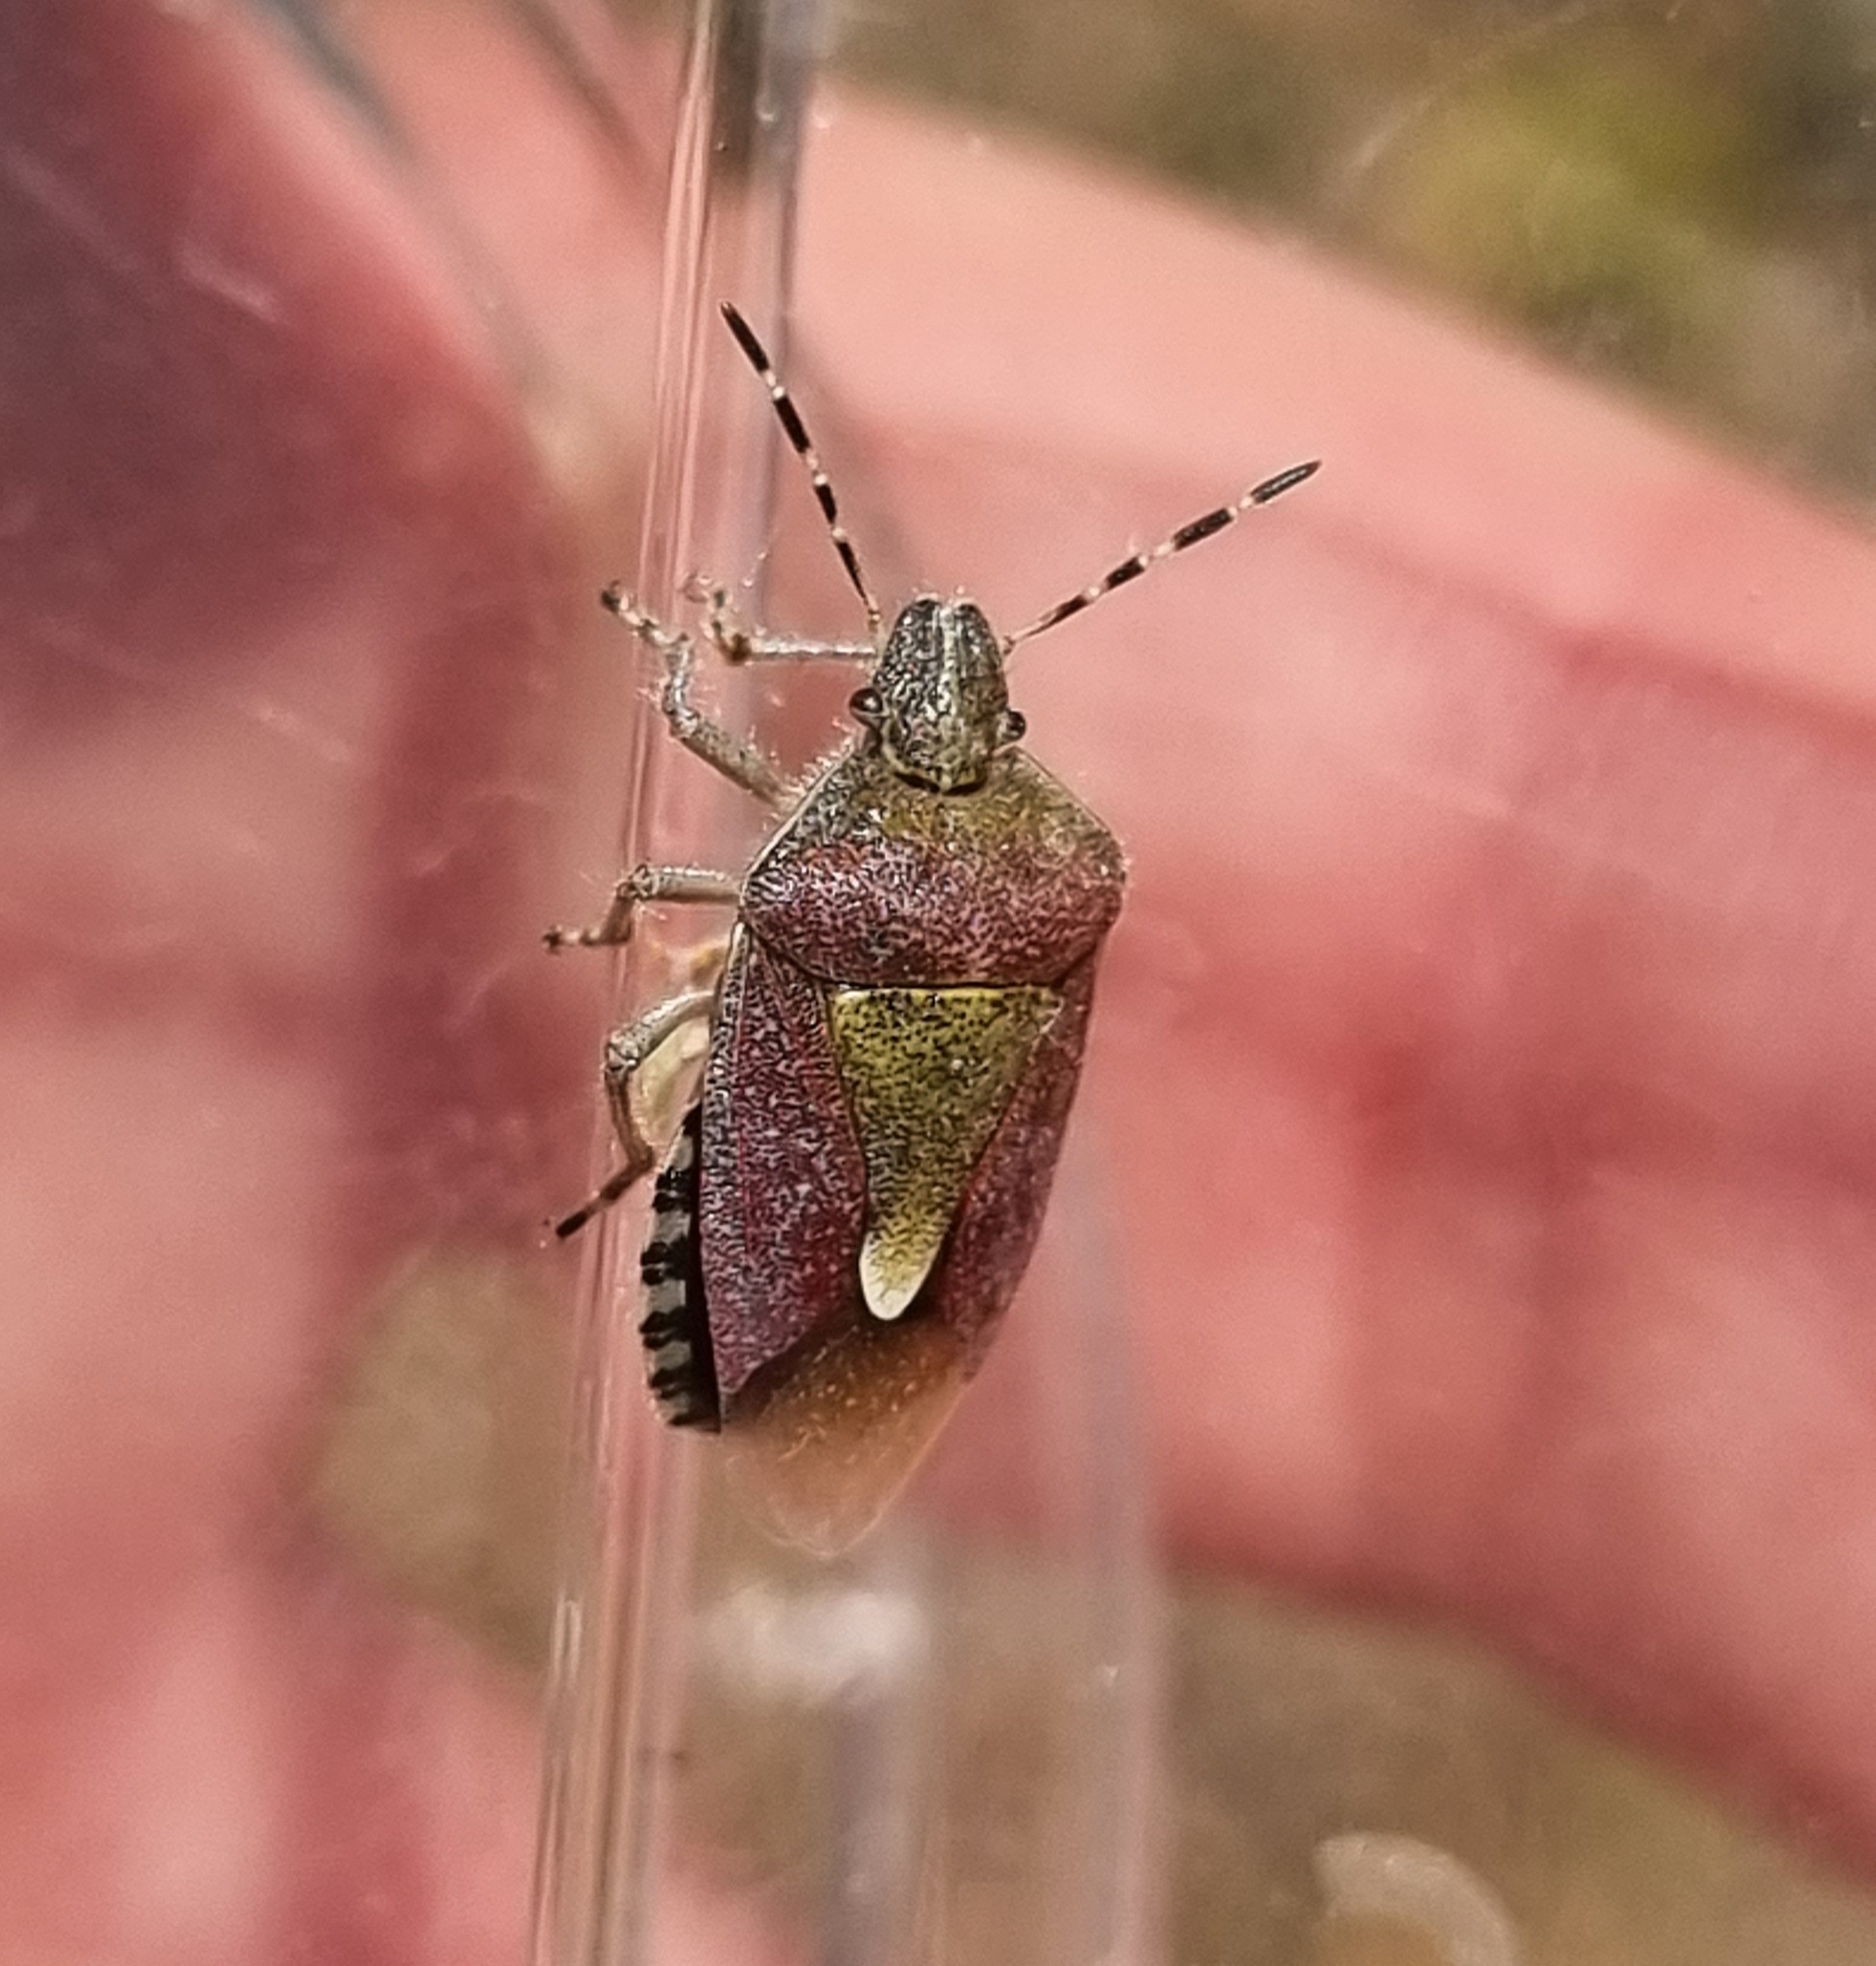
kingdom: Animalia
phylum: Arthropoda
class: Insecta
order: Hemiptera
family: Pentatomidae
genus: Dolycoris
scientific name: Dolycoris baccarum
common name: Sloe bug
